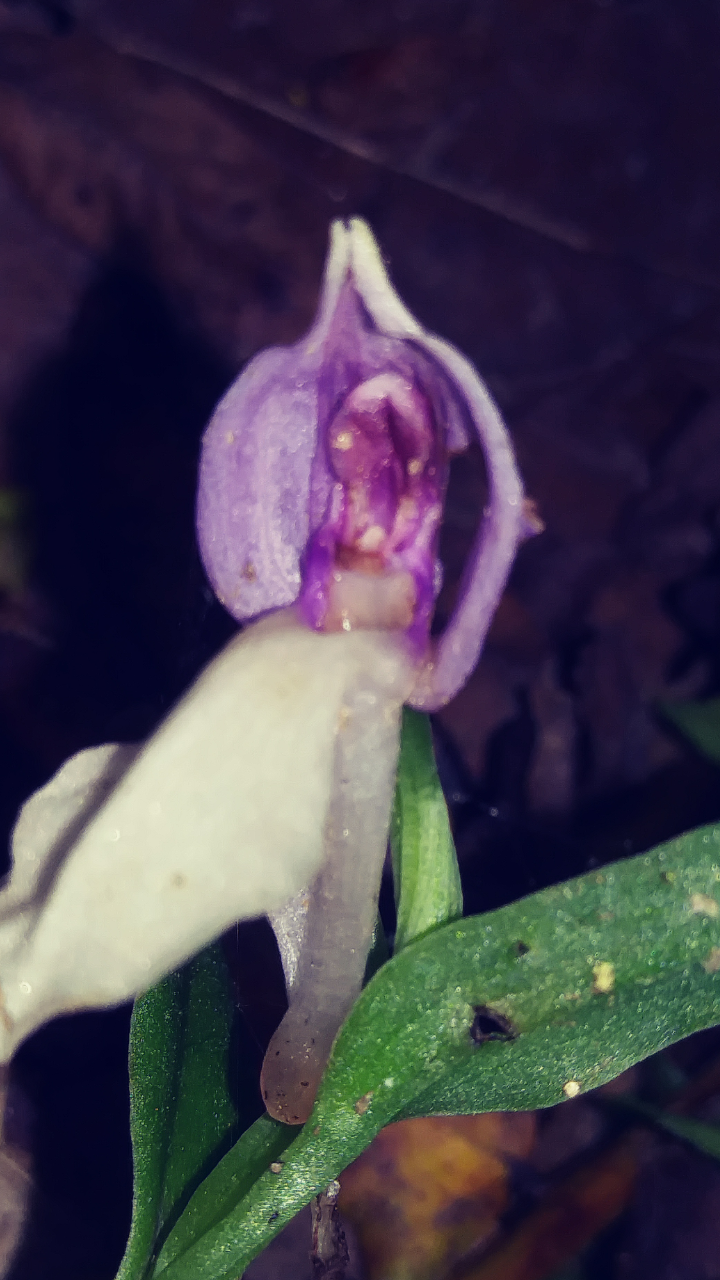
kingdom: Plantae
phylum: Tracheophyta
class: Liliopsida
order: Asparagales
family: Orchidaceae
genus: Galearis
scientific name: Galearis spectabilis
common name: Purple-hooded orchis
